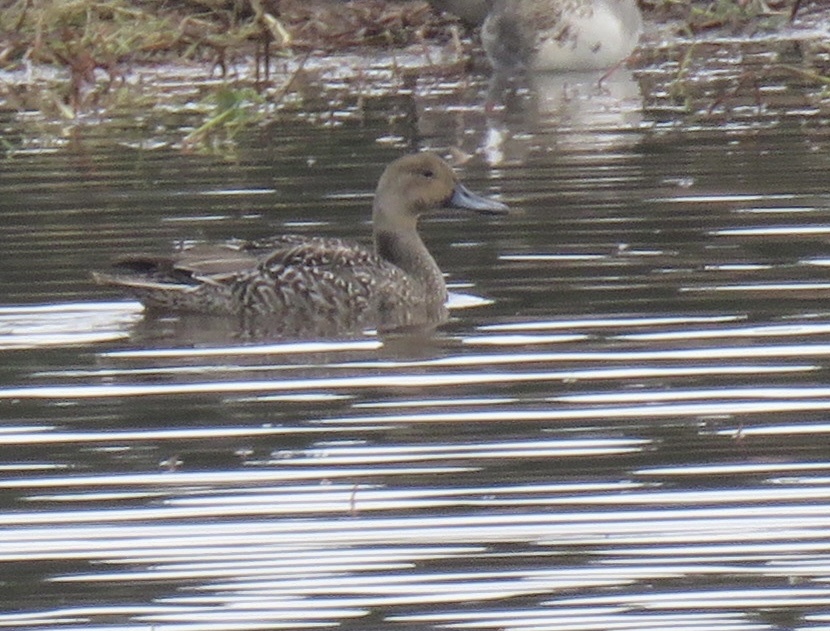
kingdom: Animalia
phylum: Chordata
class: Aves
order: Anseriformes
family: Anatidae
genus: Anas
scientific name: Anas acuta
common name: Northern pintail
